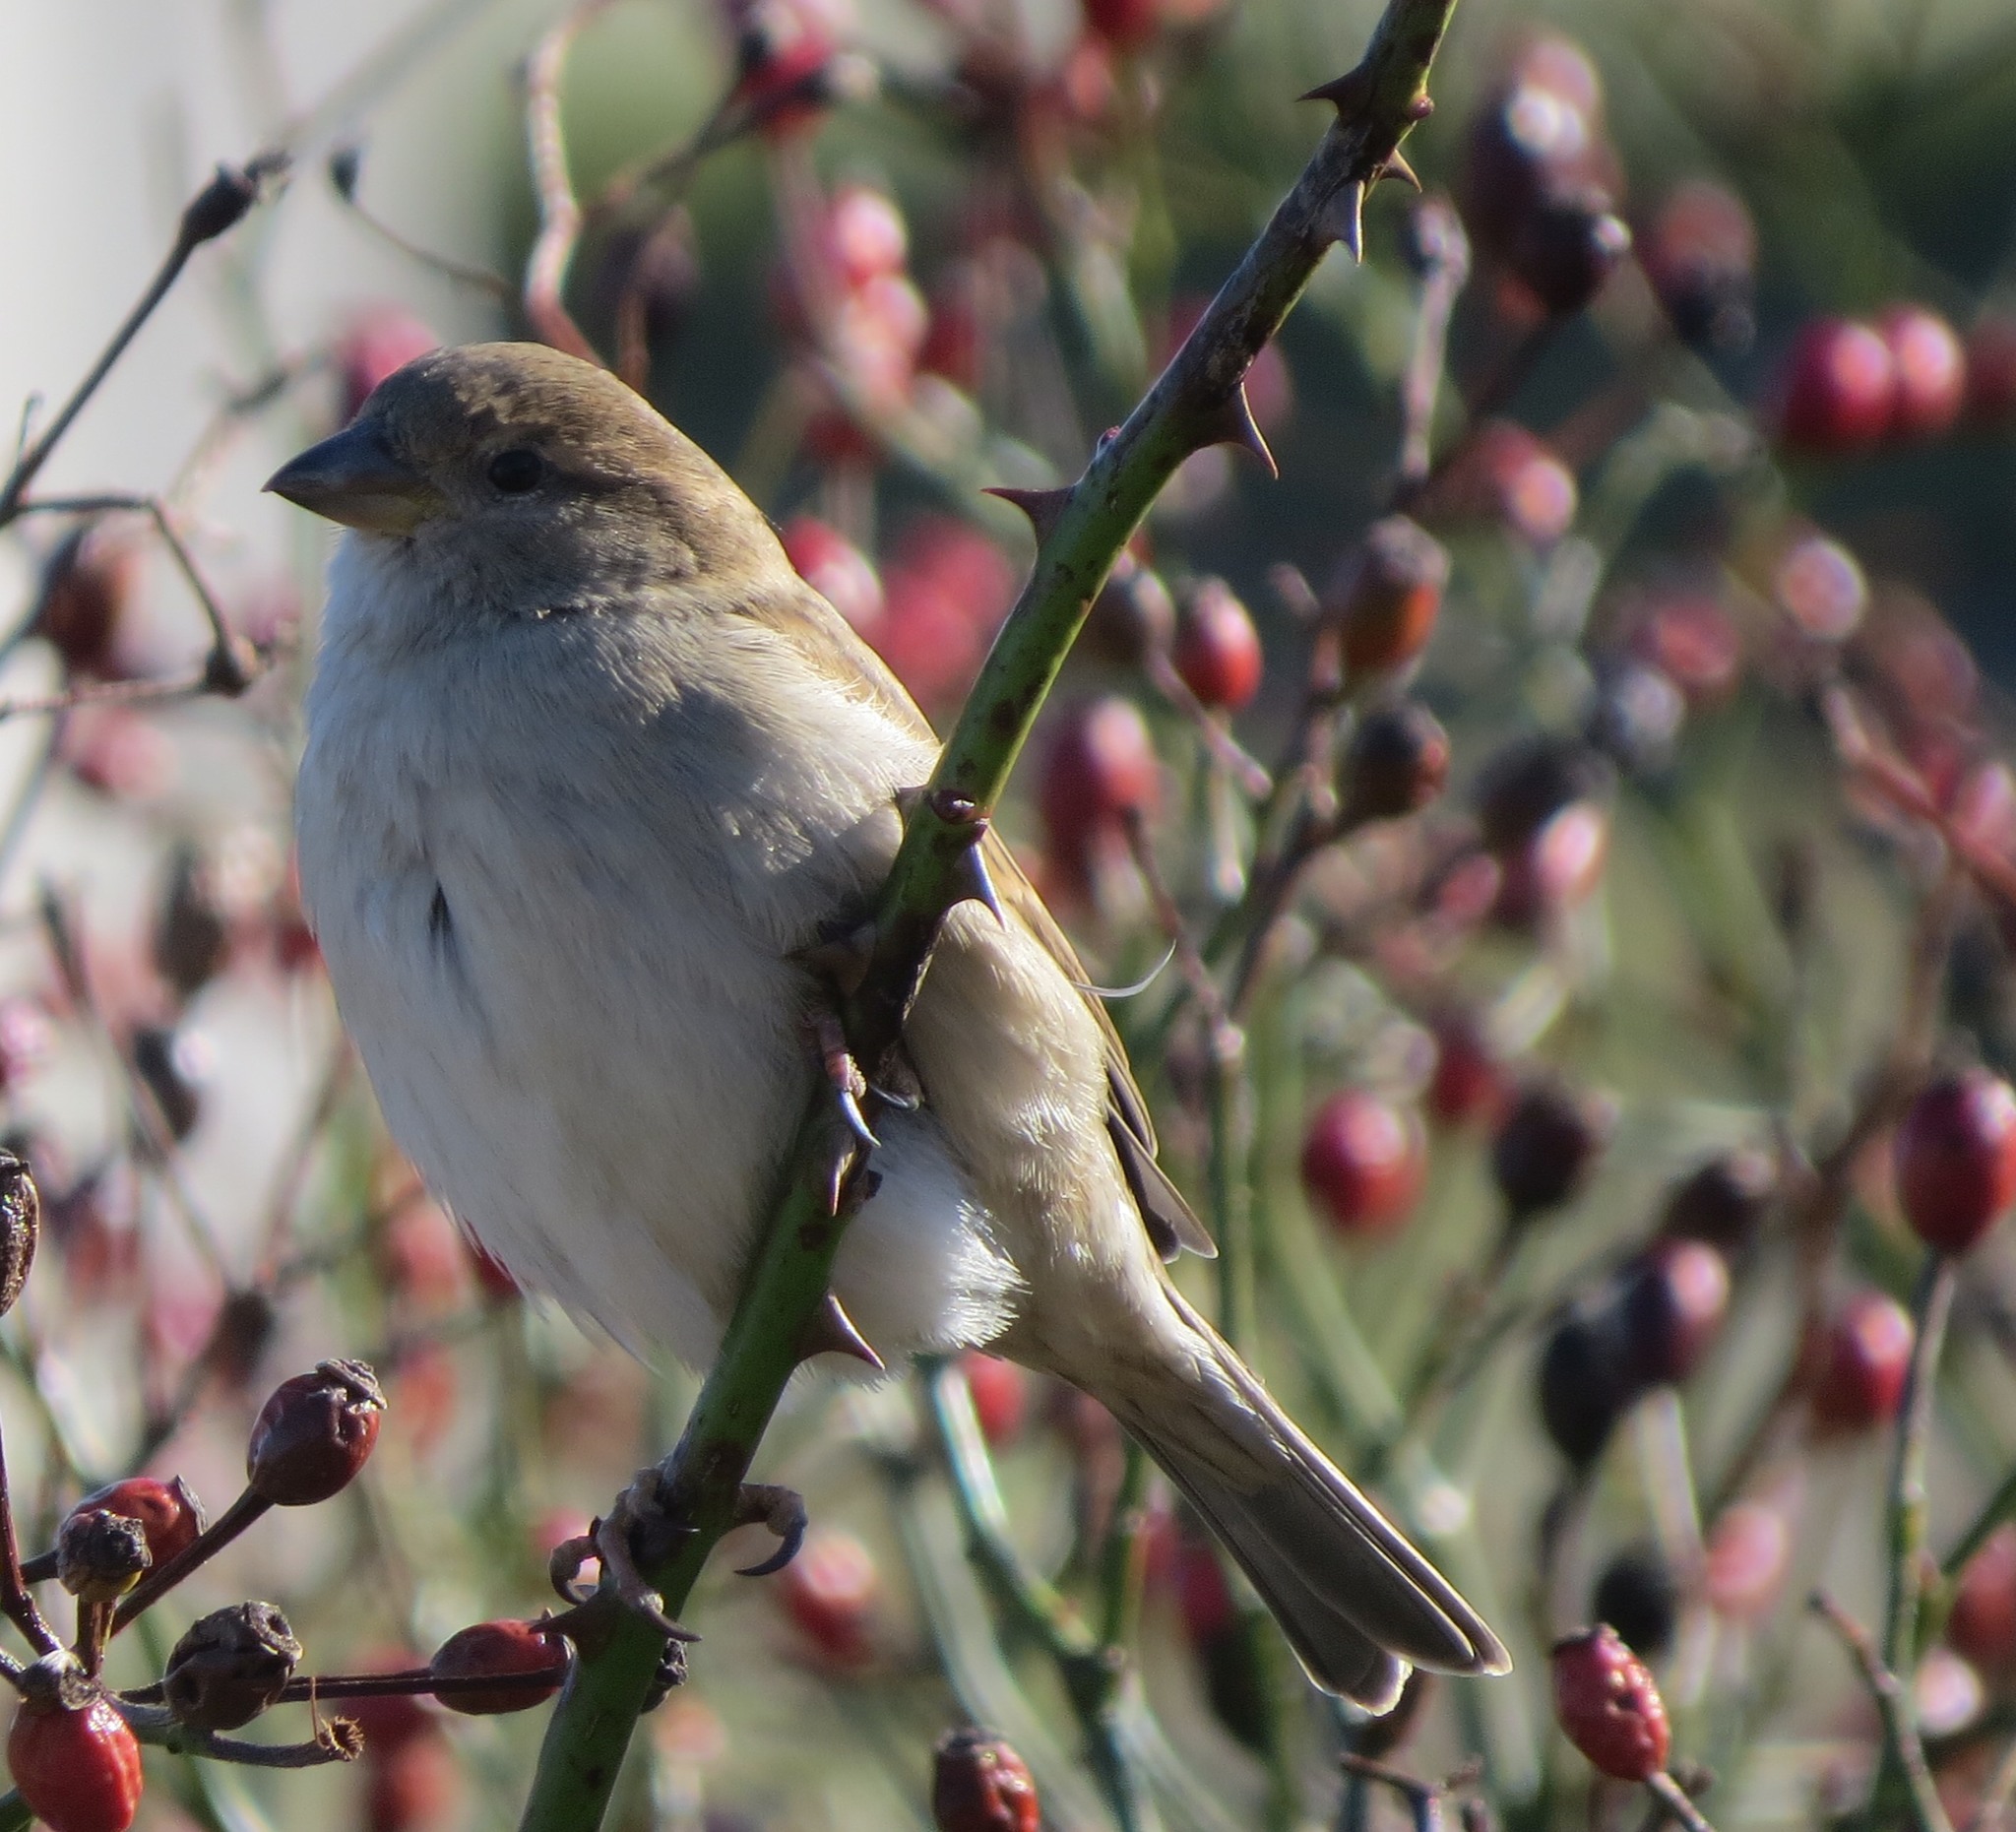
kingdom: Animalia
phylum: Chordata
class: Aves
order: Passeriformes
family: Passeridae
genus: Passer
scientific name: Passer domesticus
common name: House sparrow
